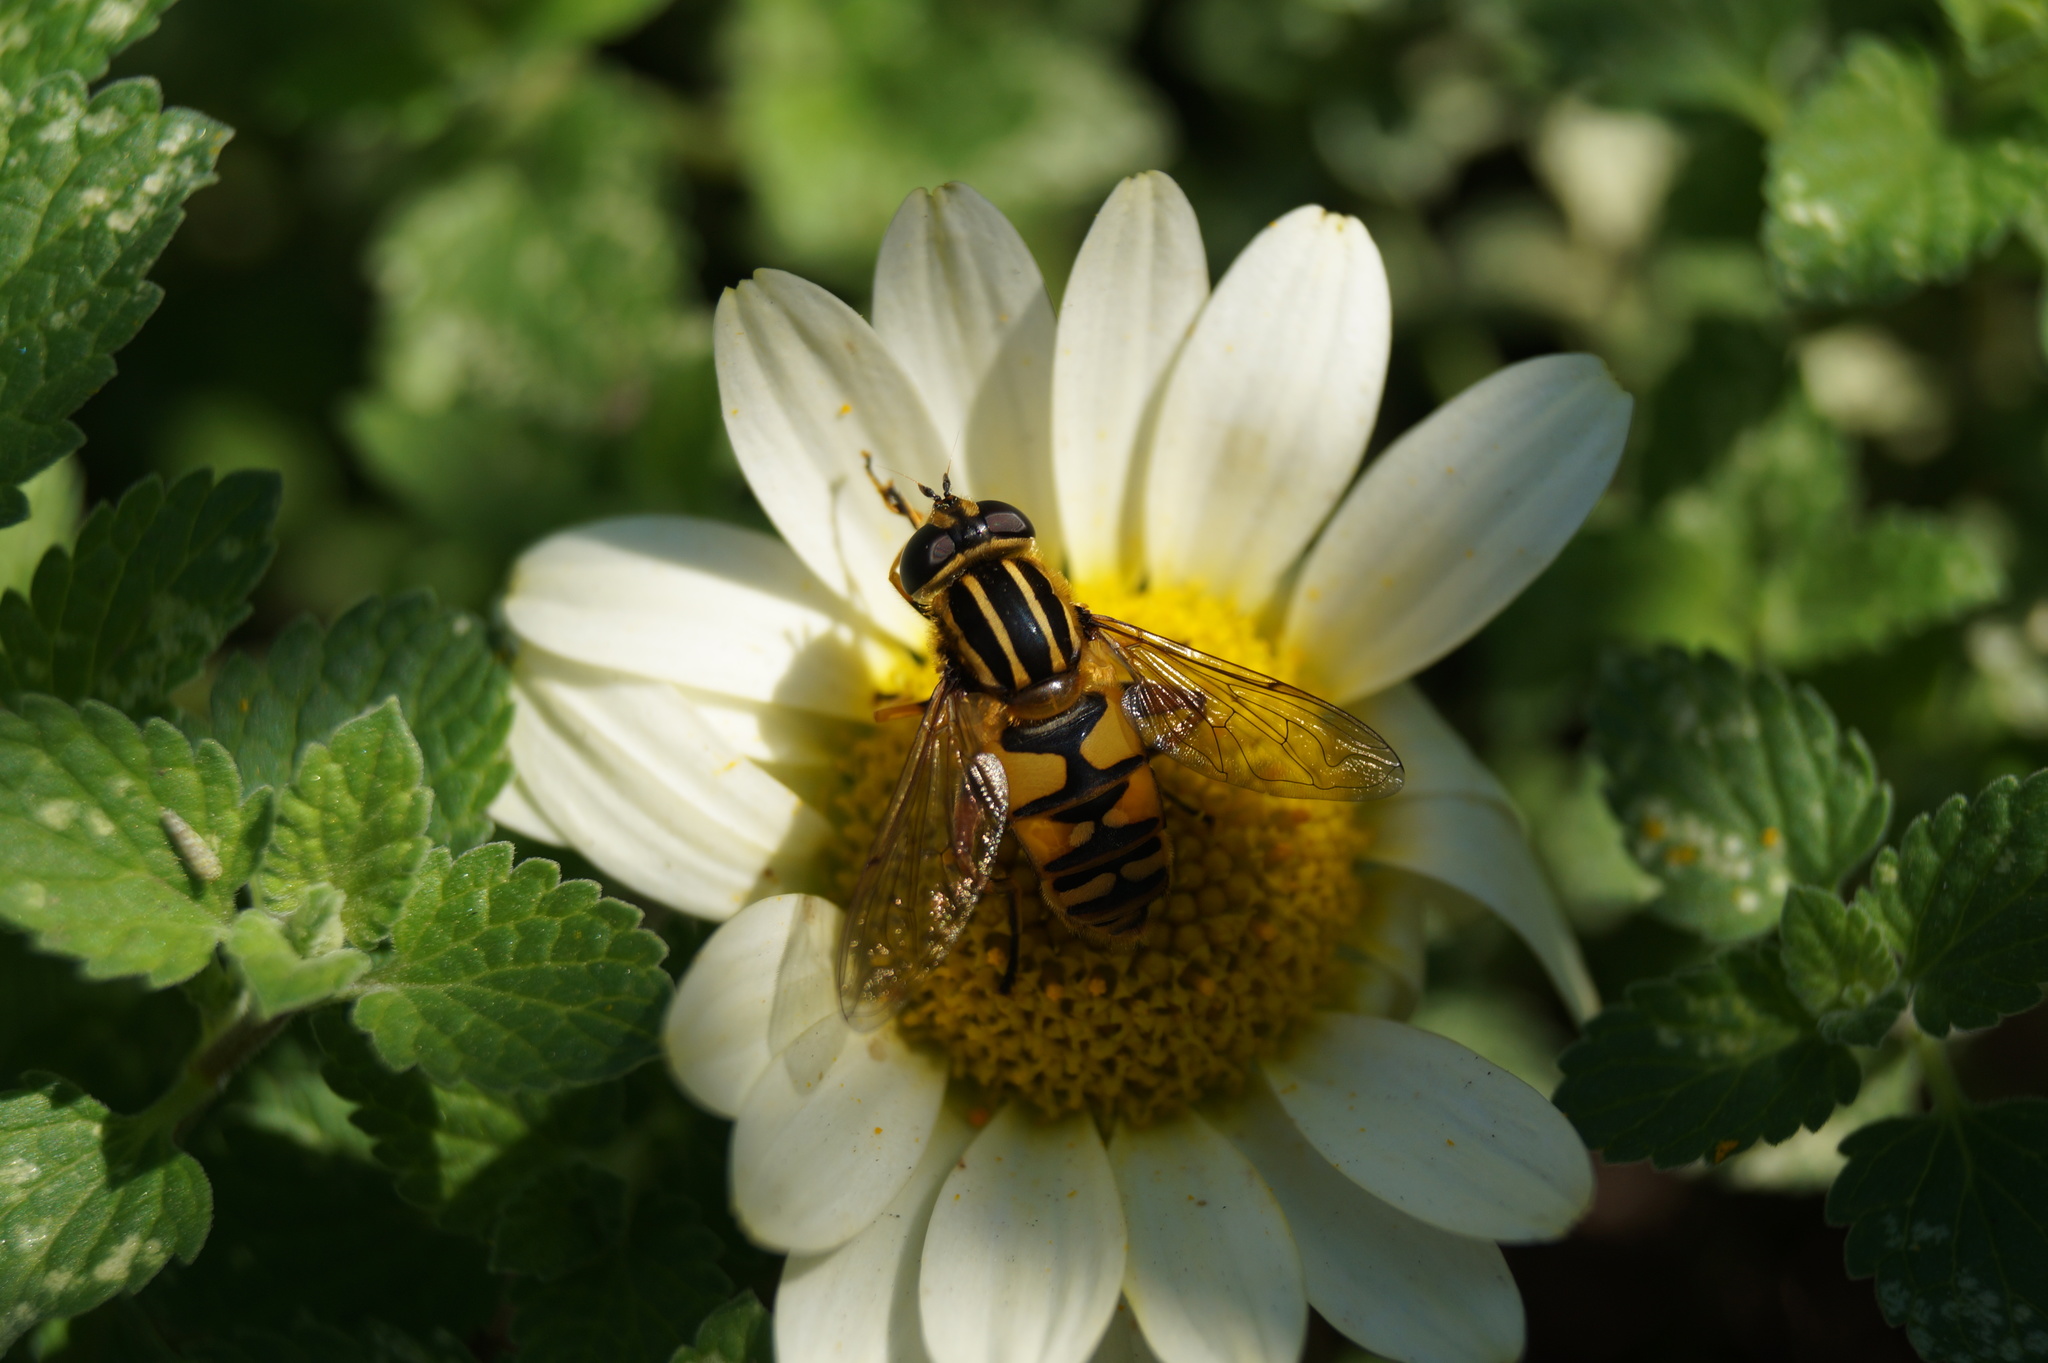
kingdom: Animalia
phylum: Arthropoda
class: Insecta
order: Diptera
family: Syrphidae
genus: Helophilus
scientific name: Helophilus pendulus
